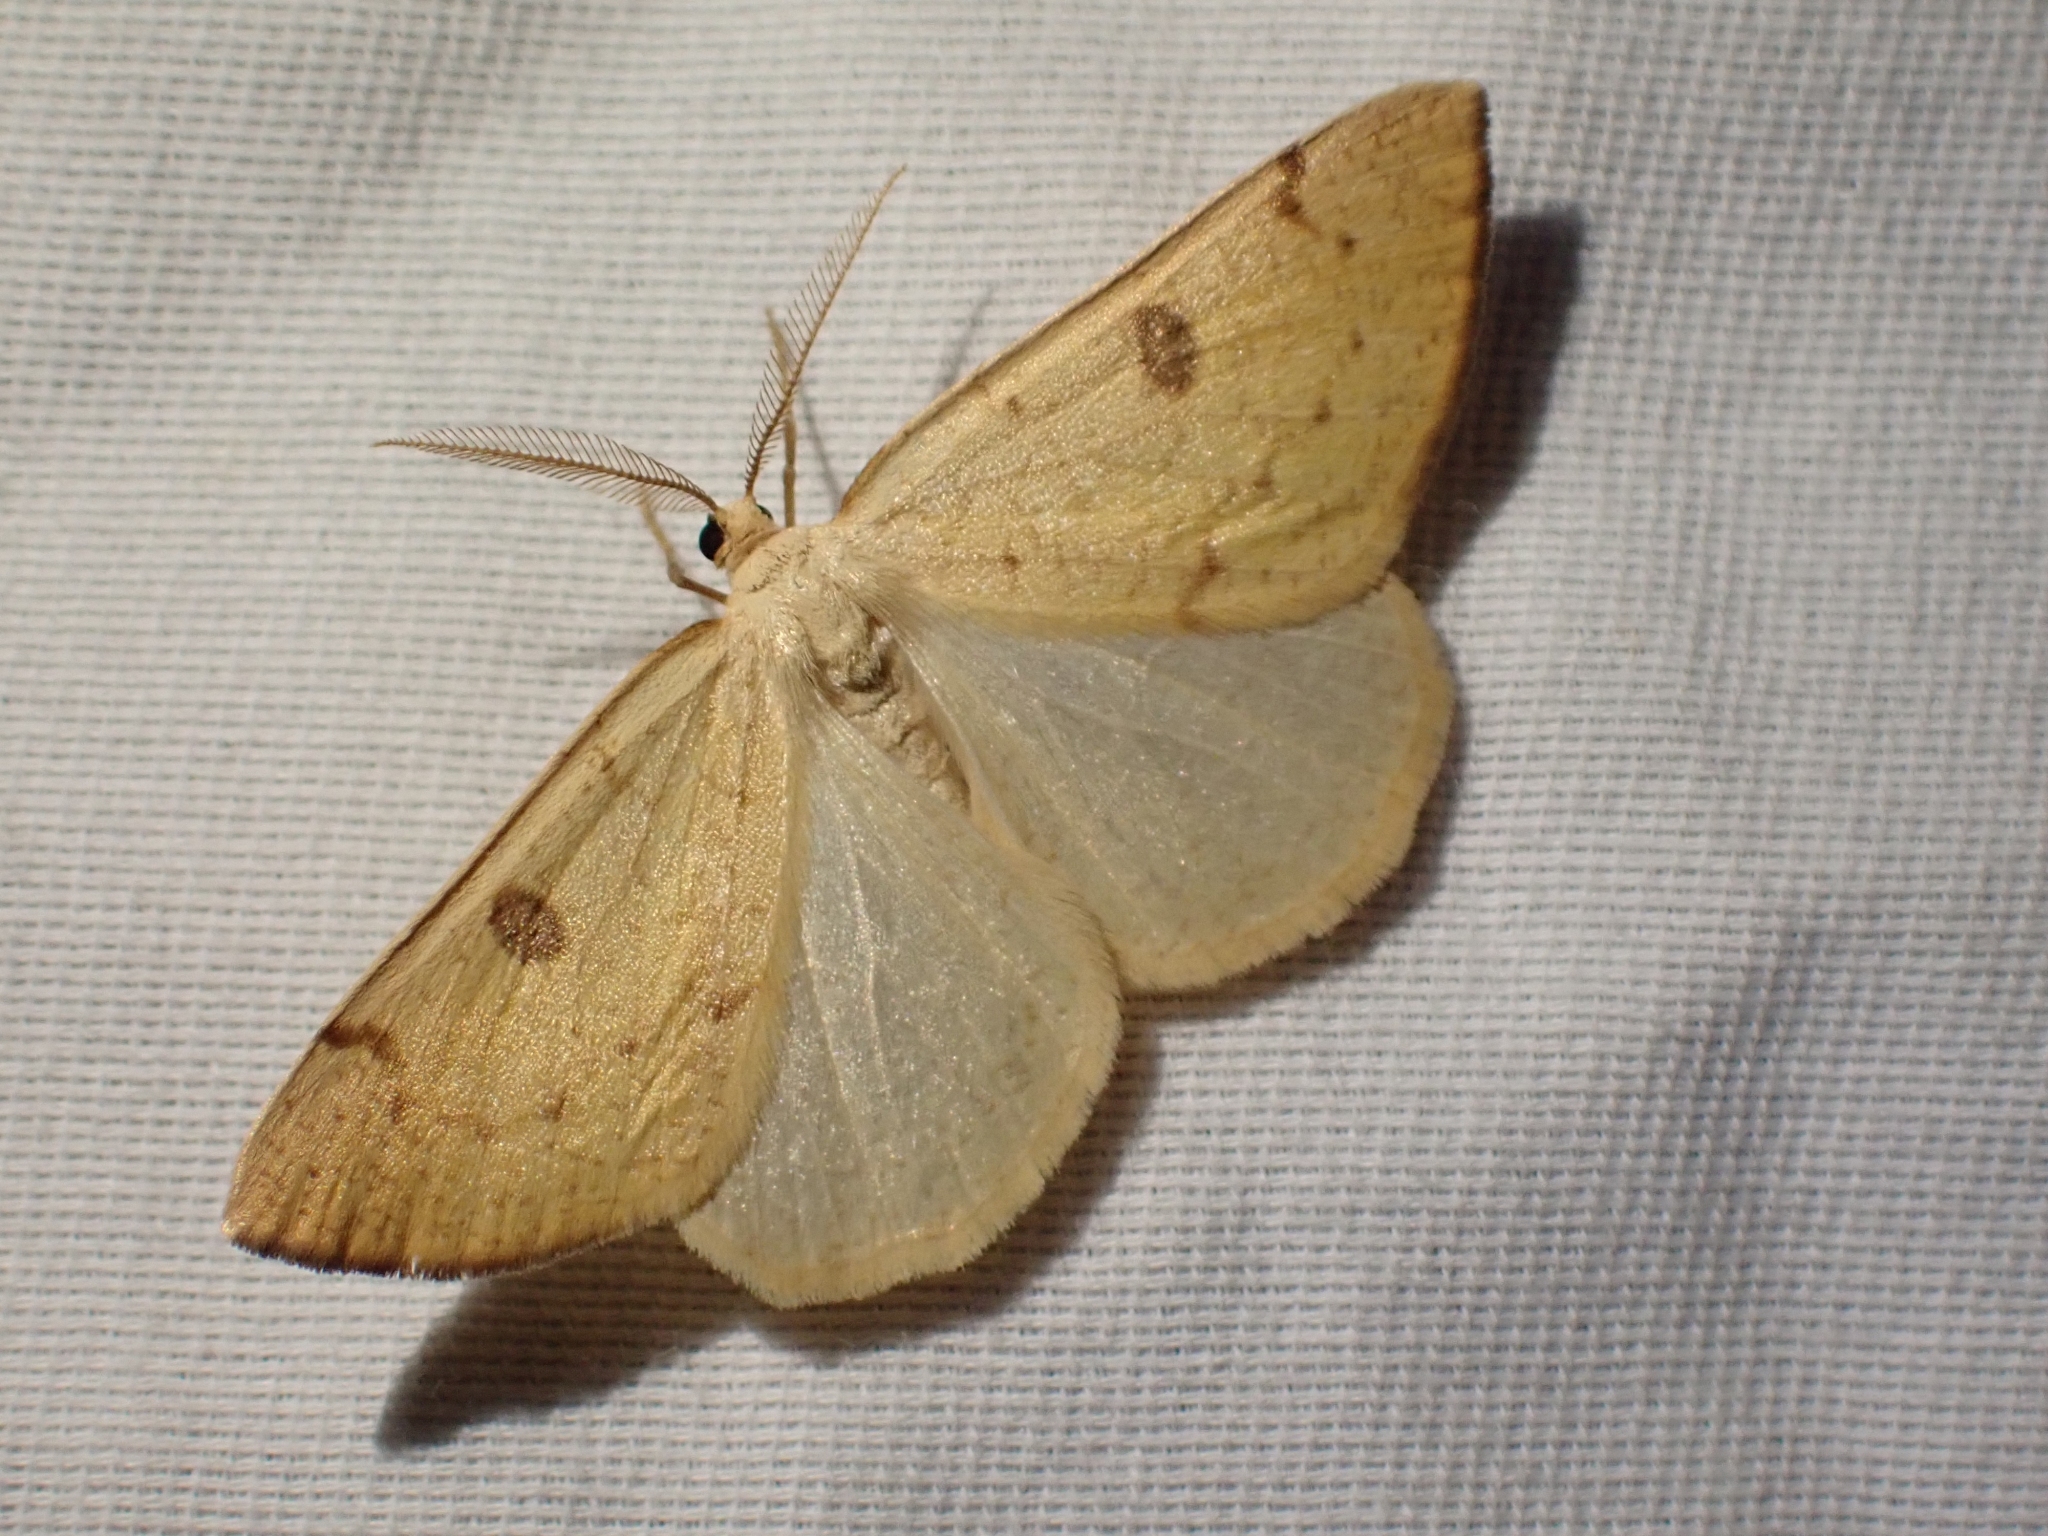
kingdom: Animalia
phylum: Arthropoda
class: Insecta
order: Lepidoptera
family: Geometridae
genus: Hesperumia
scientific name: Hesperumia sulphuraria
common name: Sulphur moth
